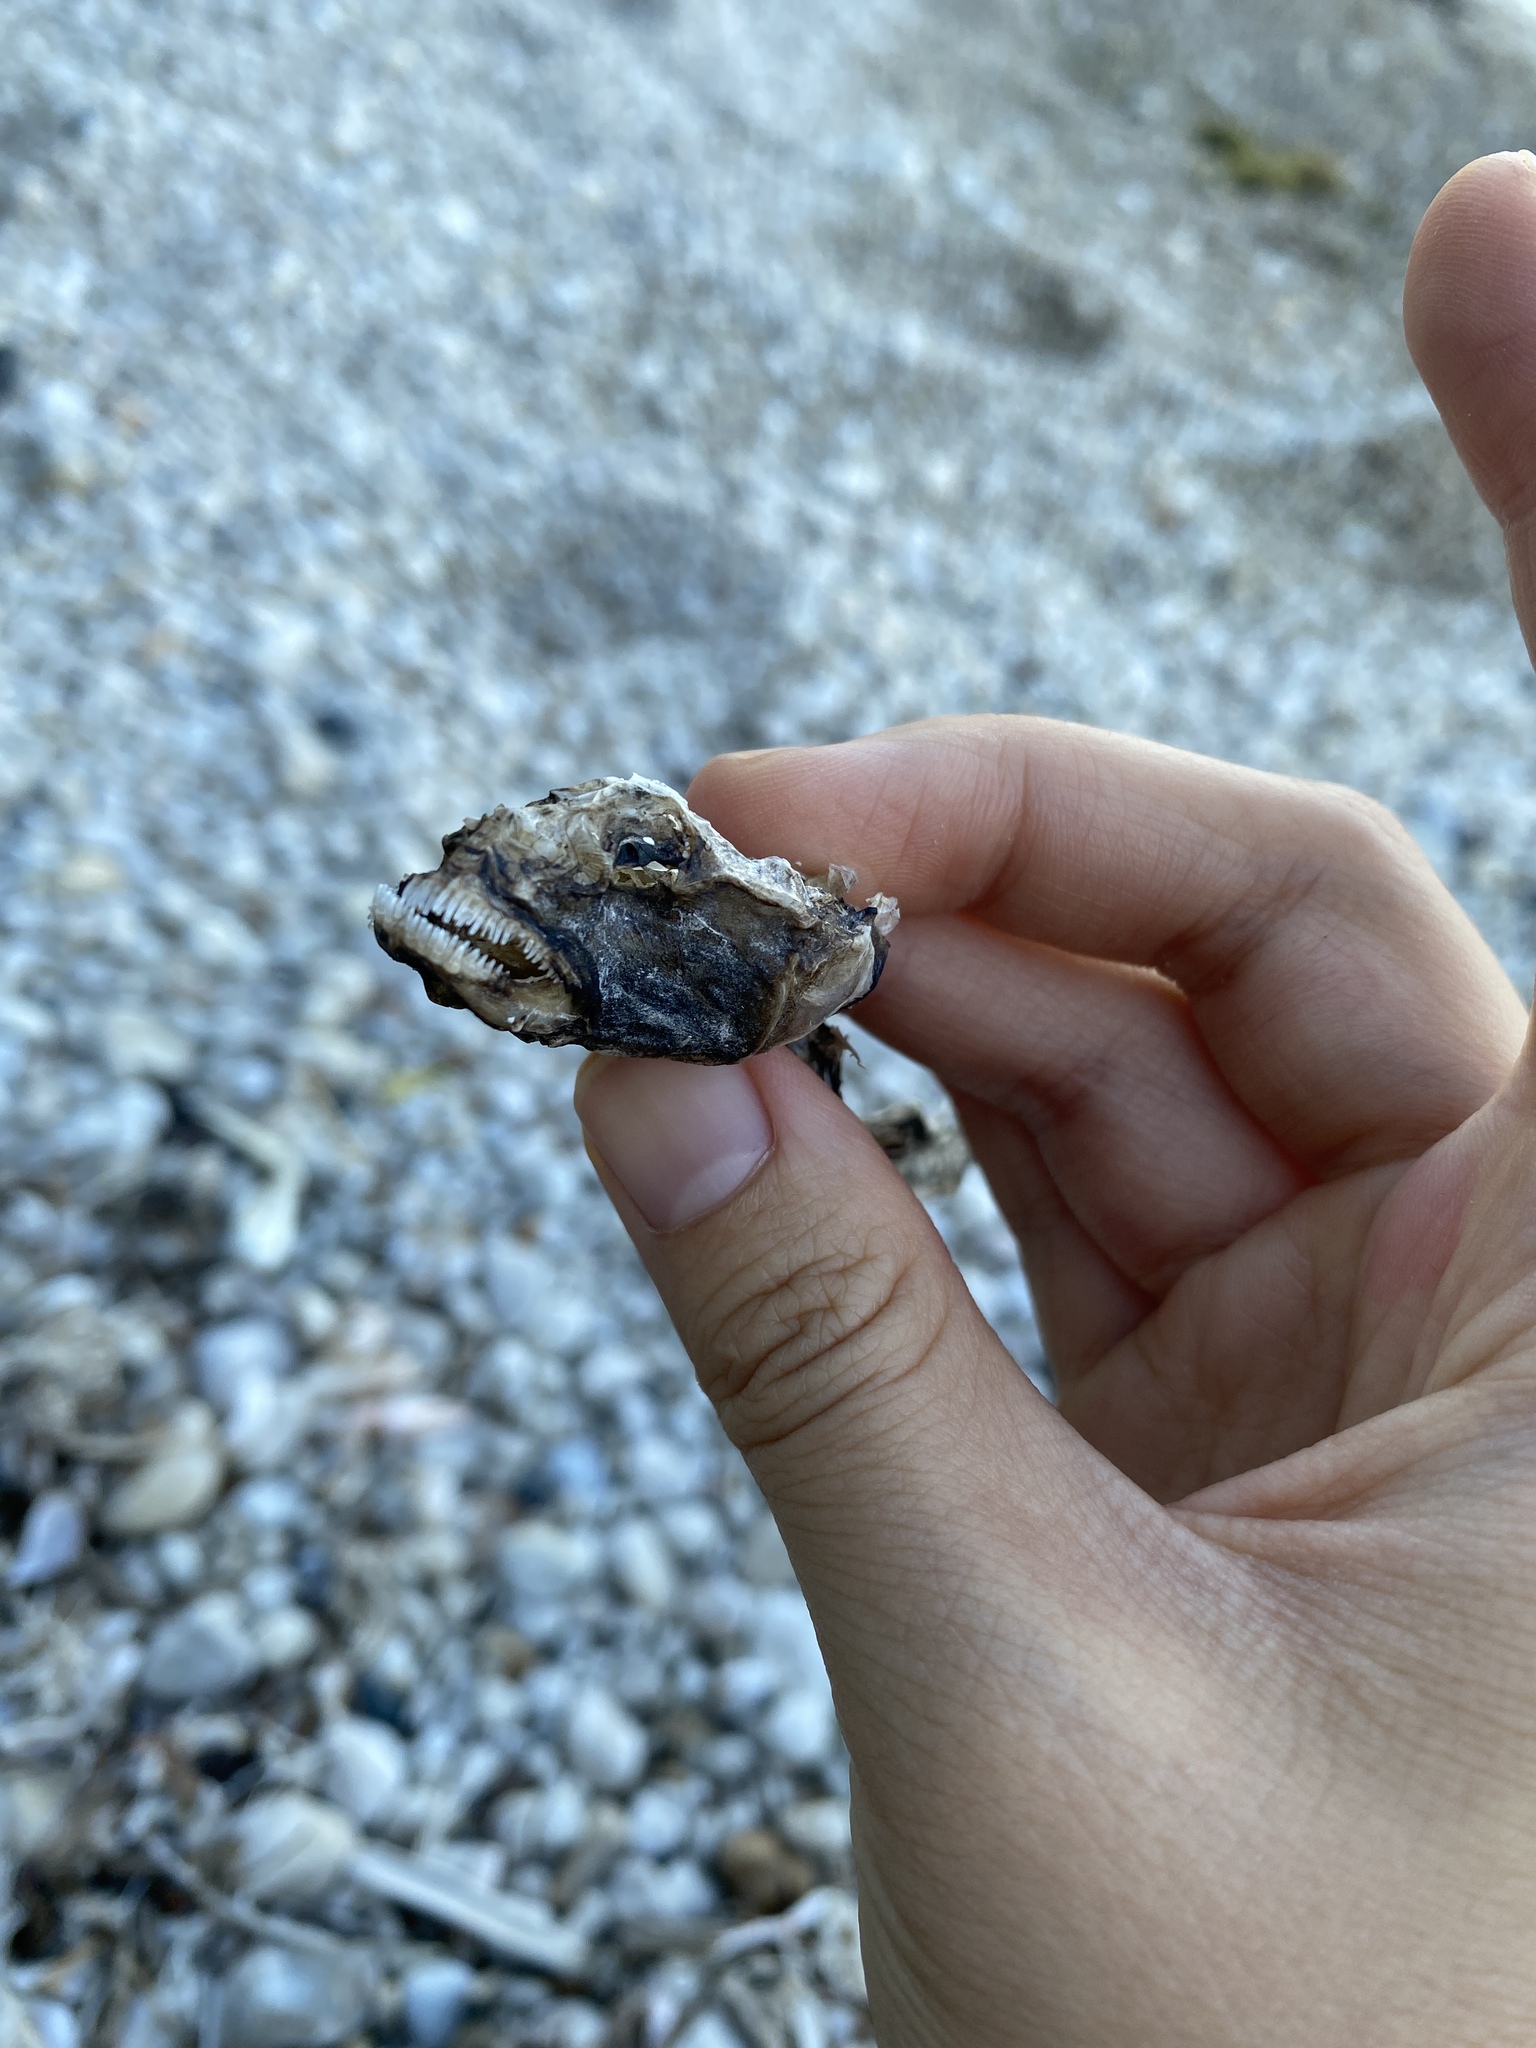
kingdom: Animalia
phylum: Chordata
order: Perciformes
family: Gobiidae
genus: Neogobius
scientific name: Neogobius melanostomus
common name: Round goby
